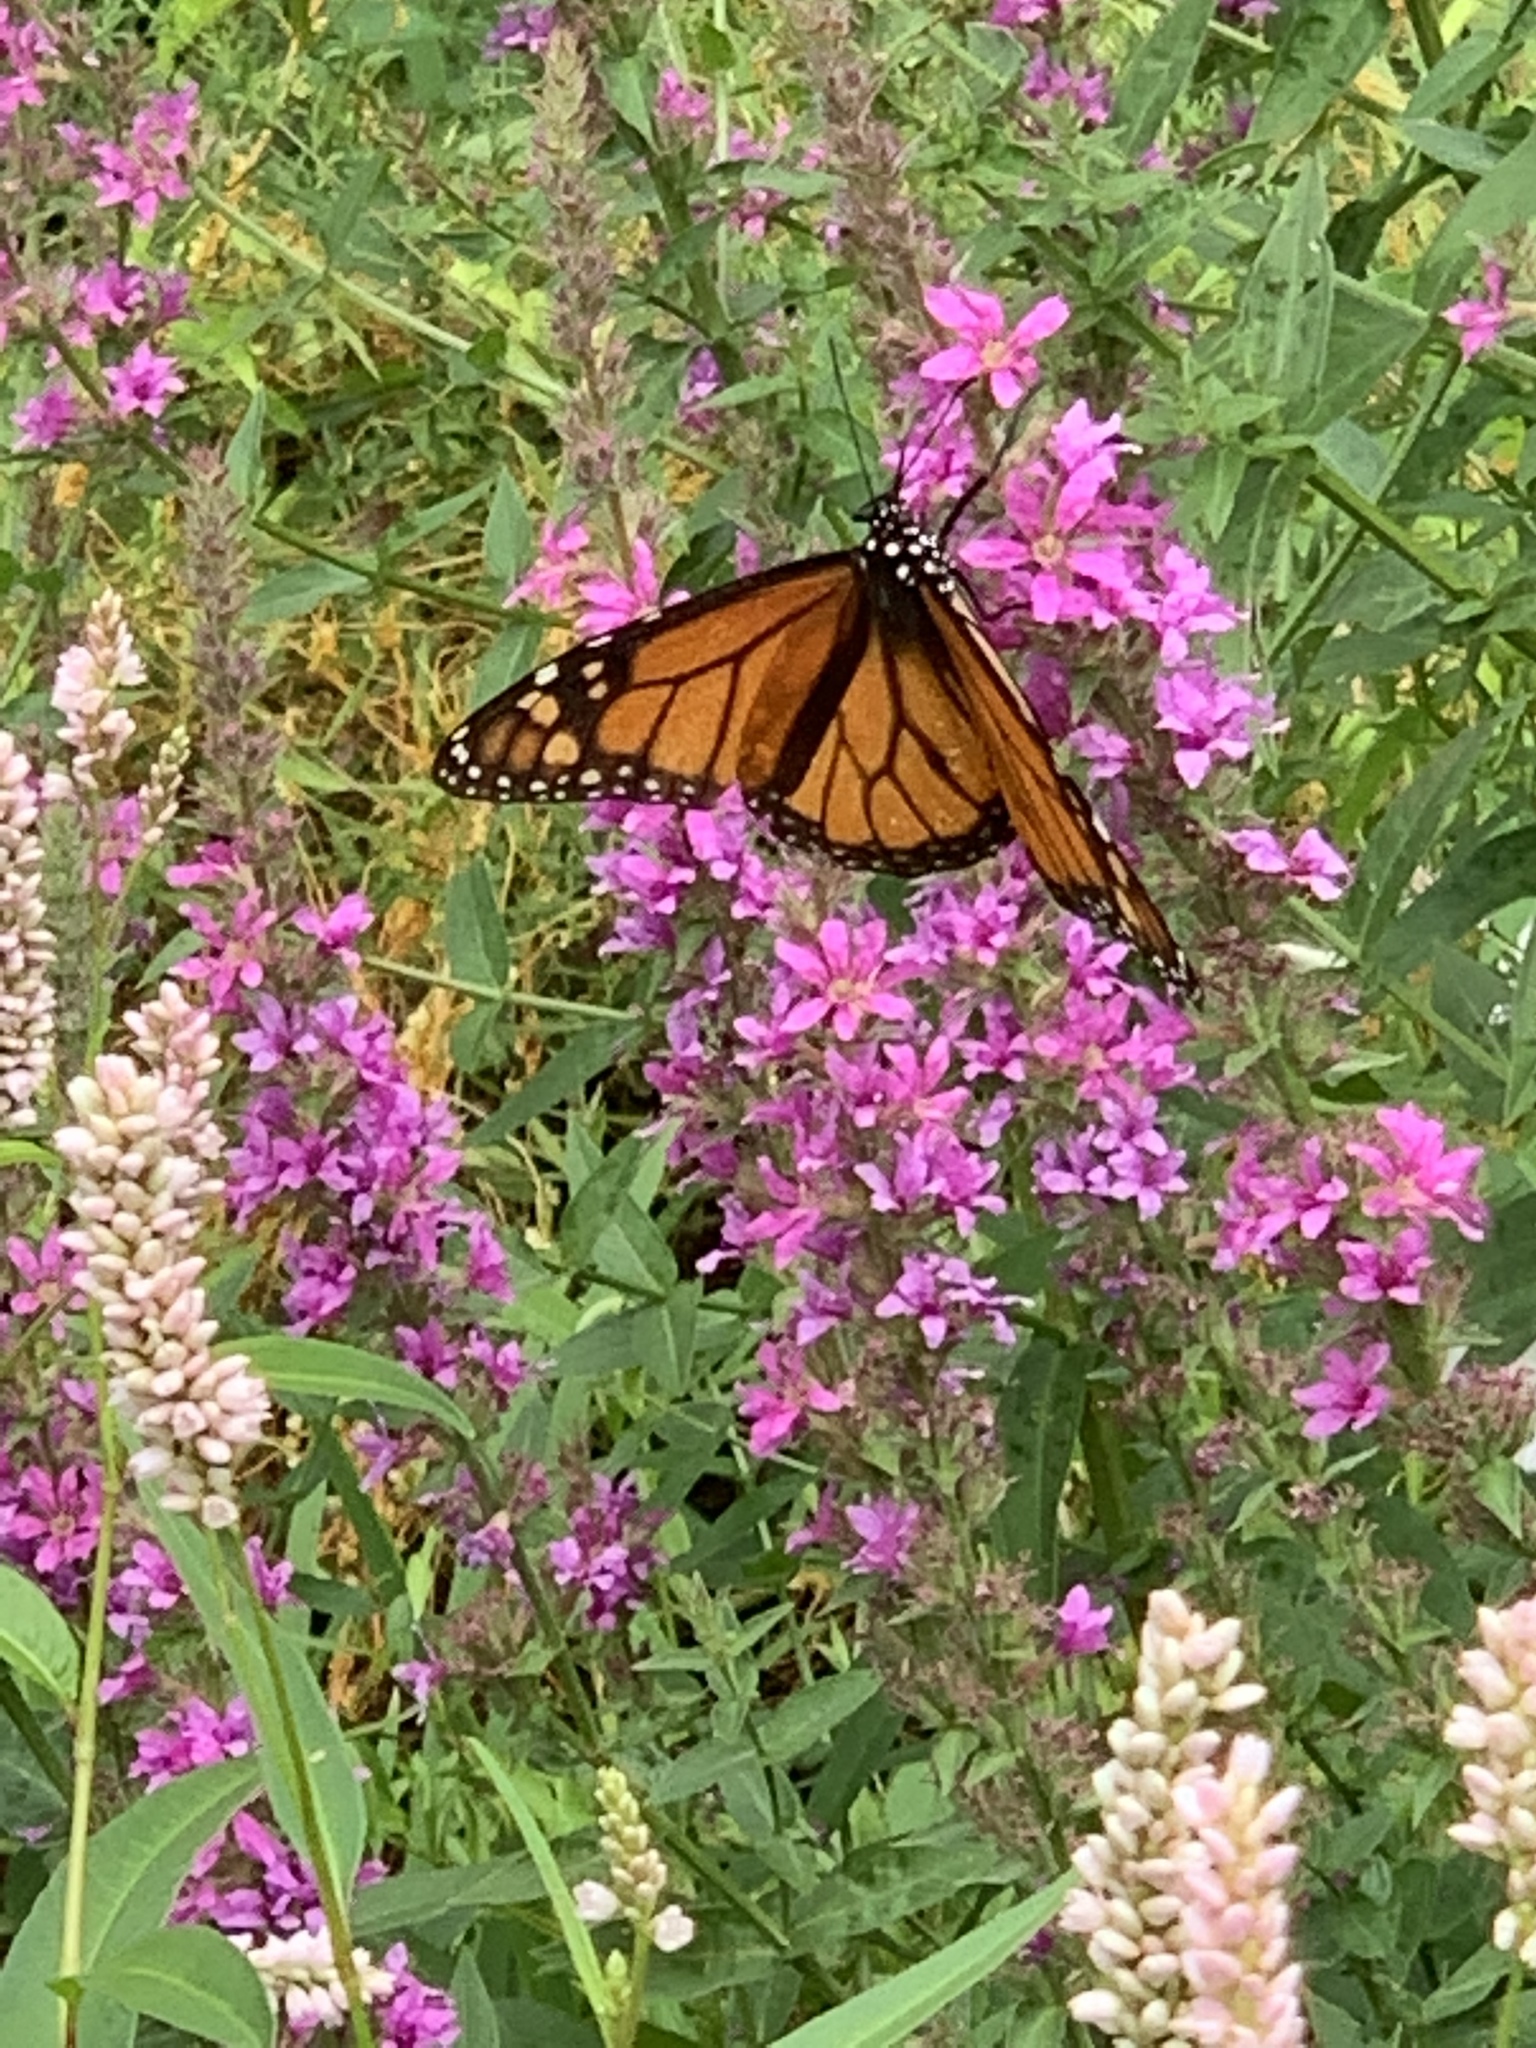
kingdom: Animalia
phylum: Arthropoda
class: Insecta
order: Lepidoptera
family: Nymphalidae
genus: Danaus
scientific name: Danaus plexippus
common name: Monarch
